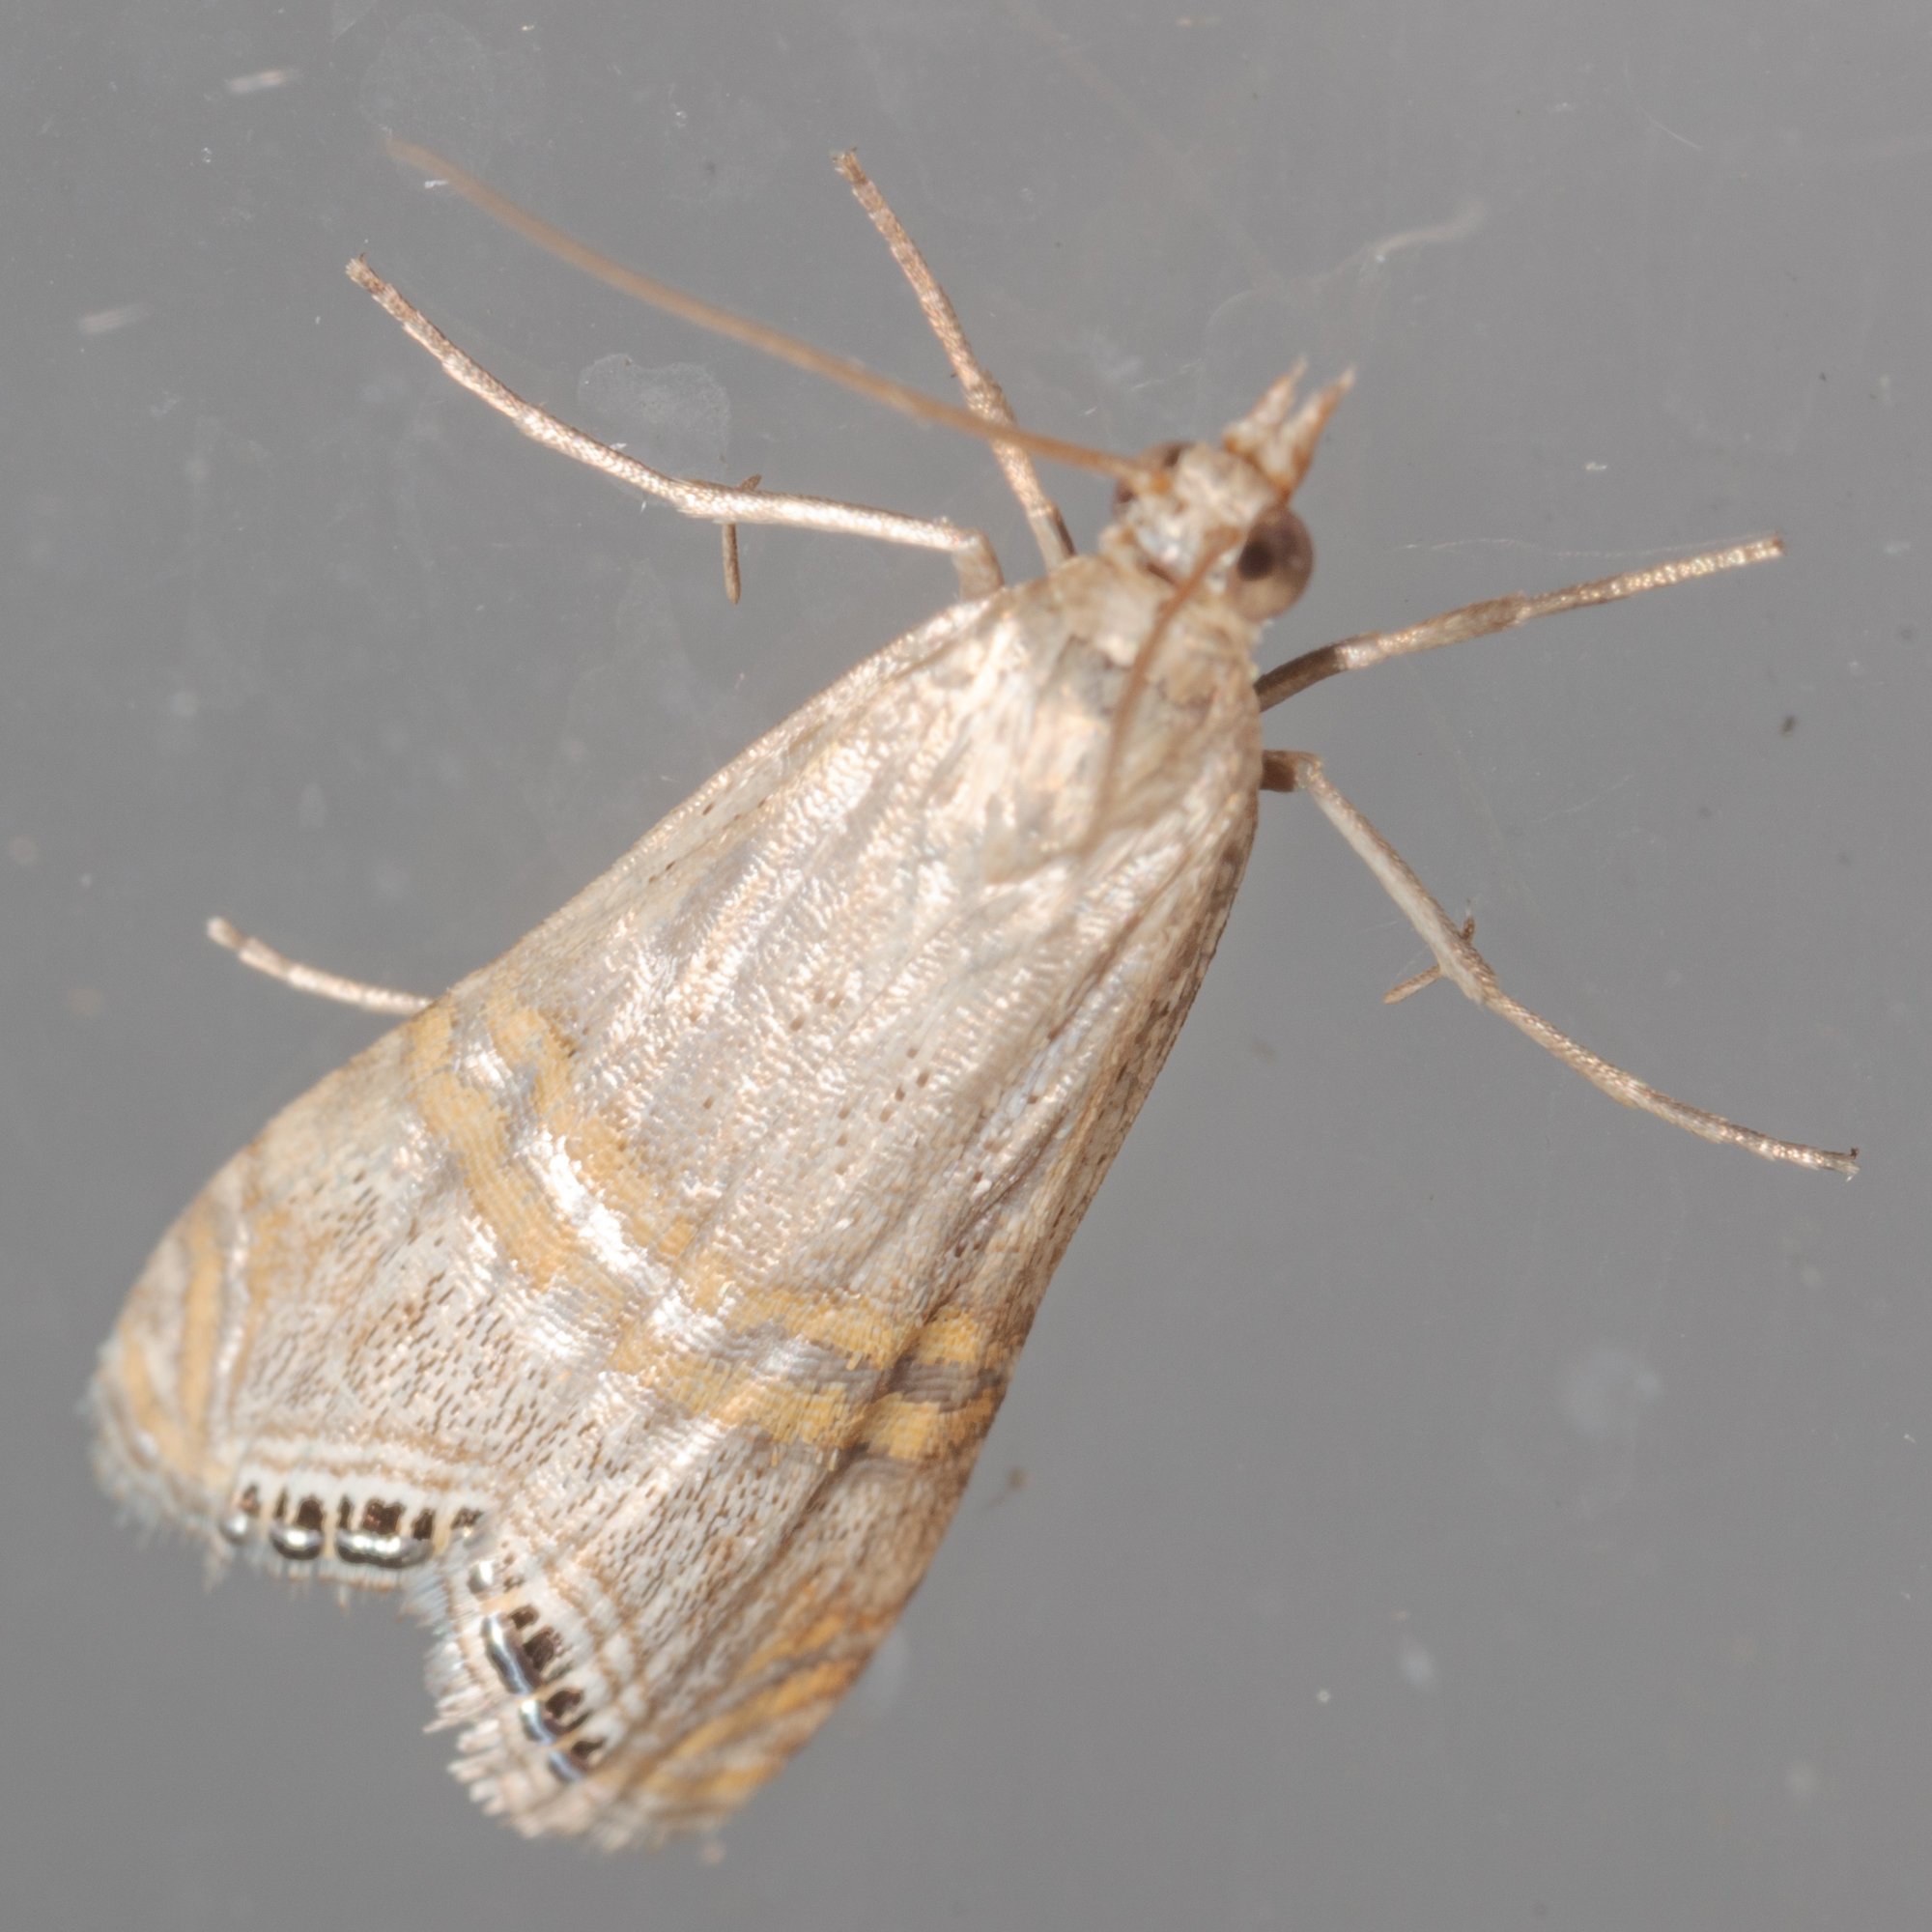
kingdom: Animalia
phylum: Arthropoda
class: Insecta
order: Lepidoptera
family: Crambidae
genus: Euchromius
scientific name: Euchromius ocellea
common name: Necklace veneer moth
